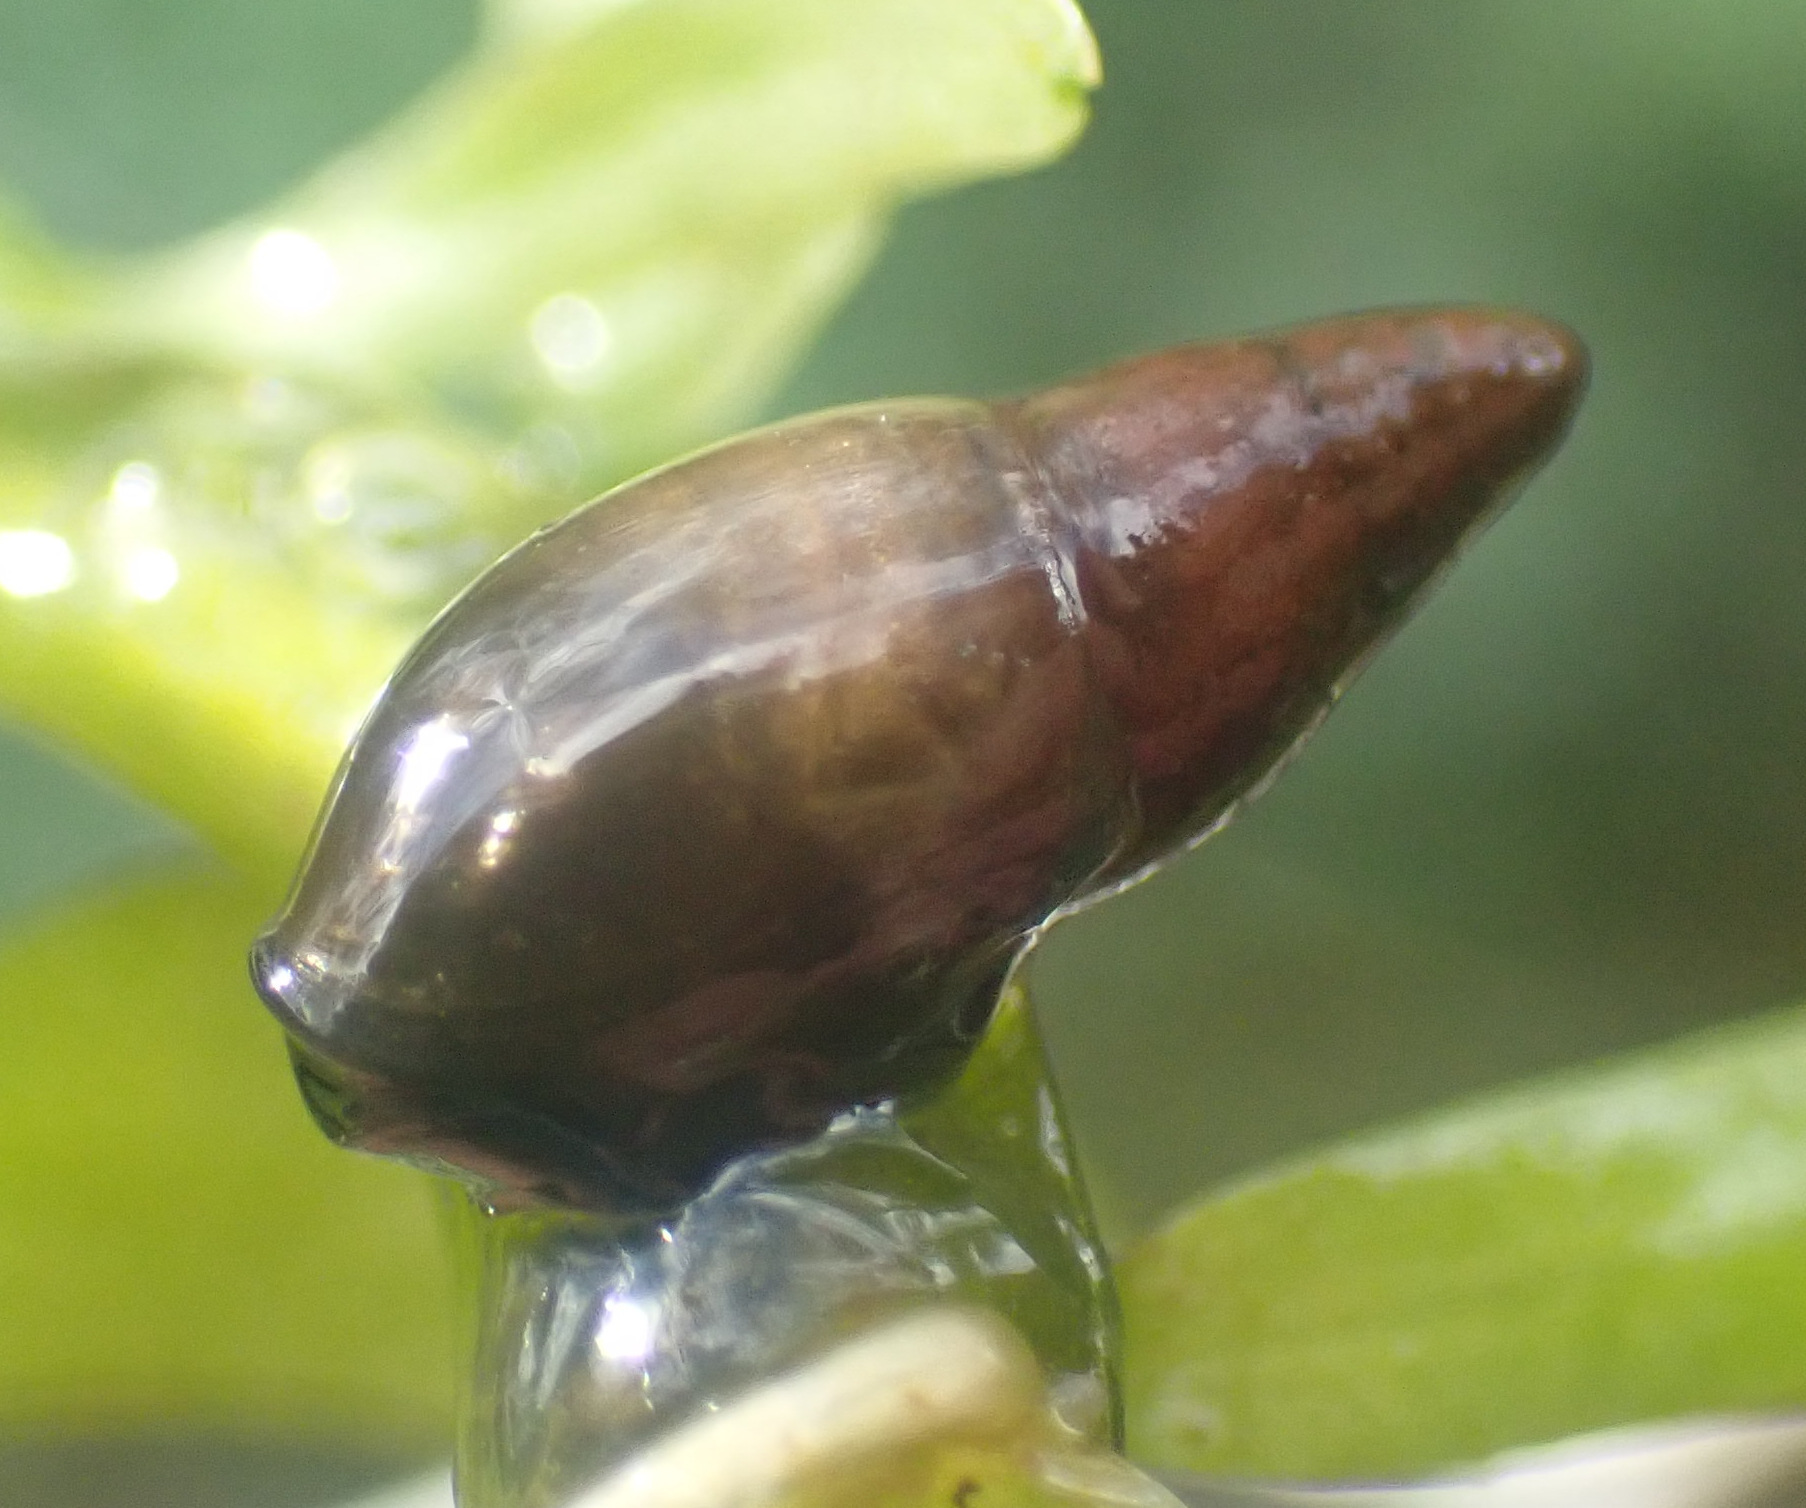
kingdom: Animalia
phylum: Mollusca
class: Gastropoda
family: Physidae
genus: Aplexa
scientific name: Aplexa hypnorum
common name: Moss bladder snail
